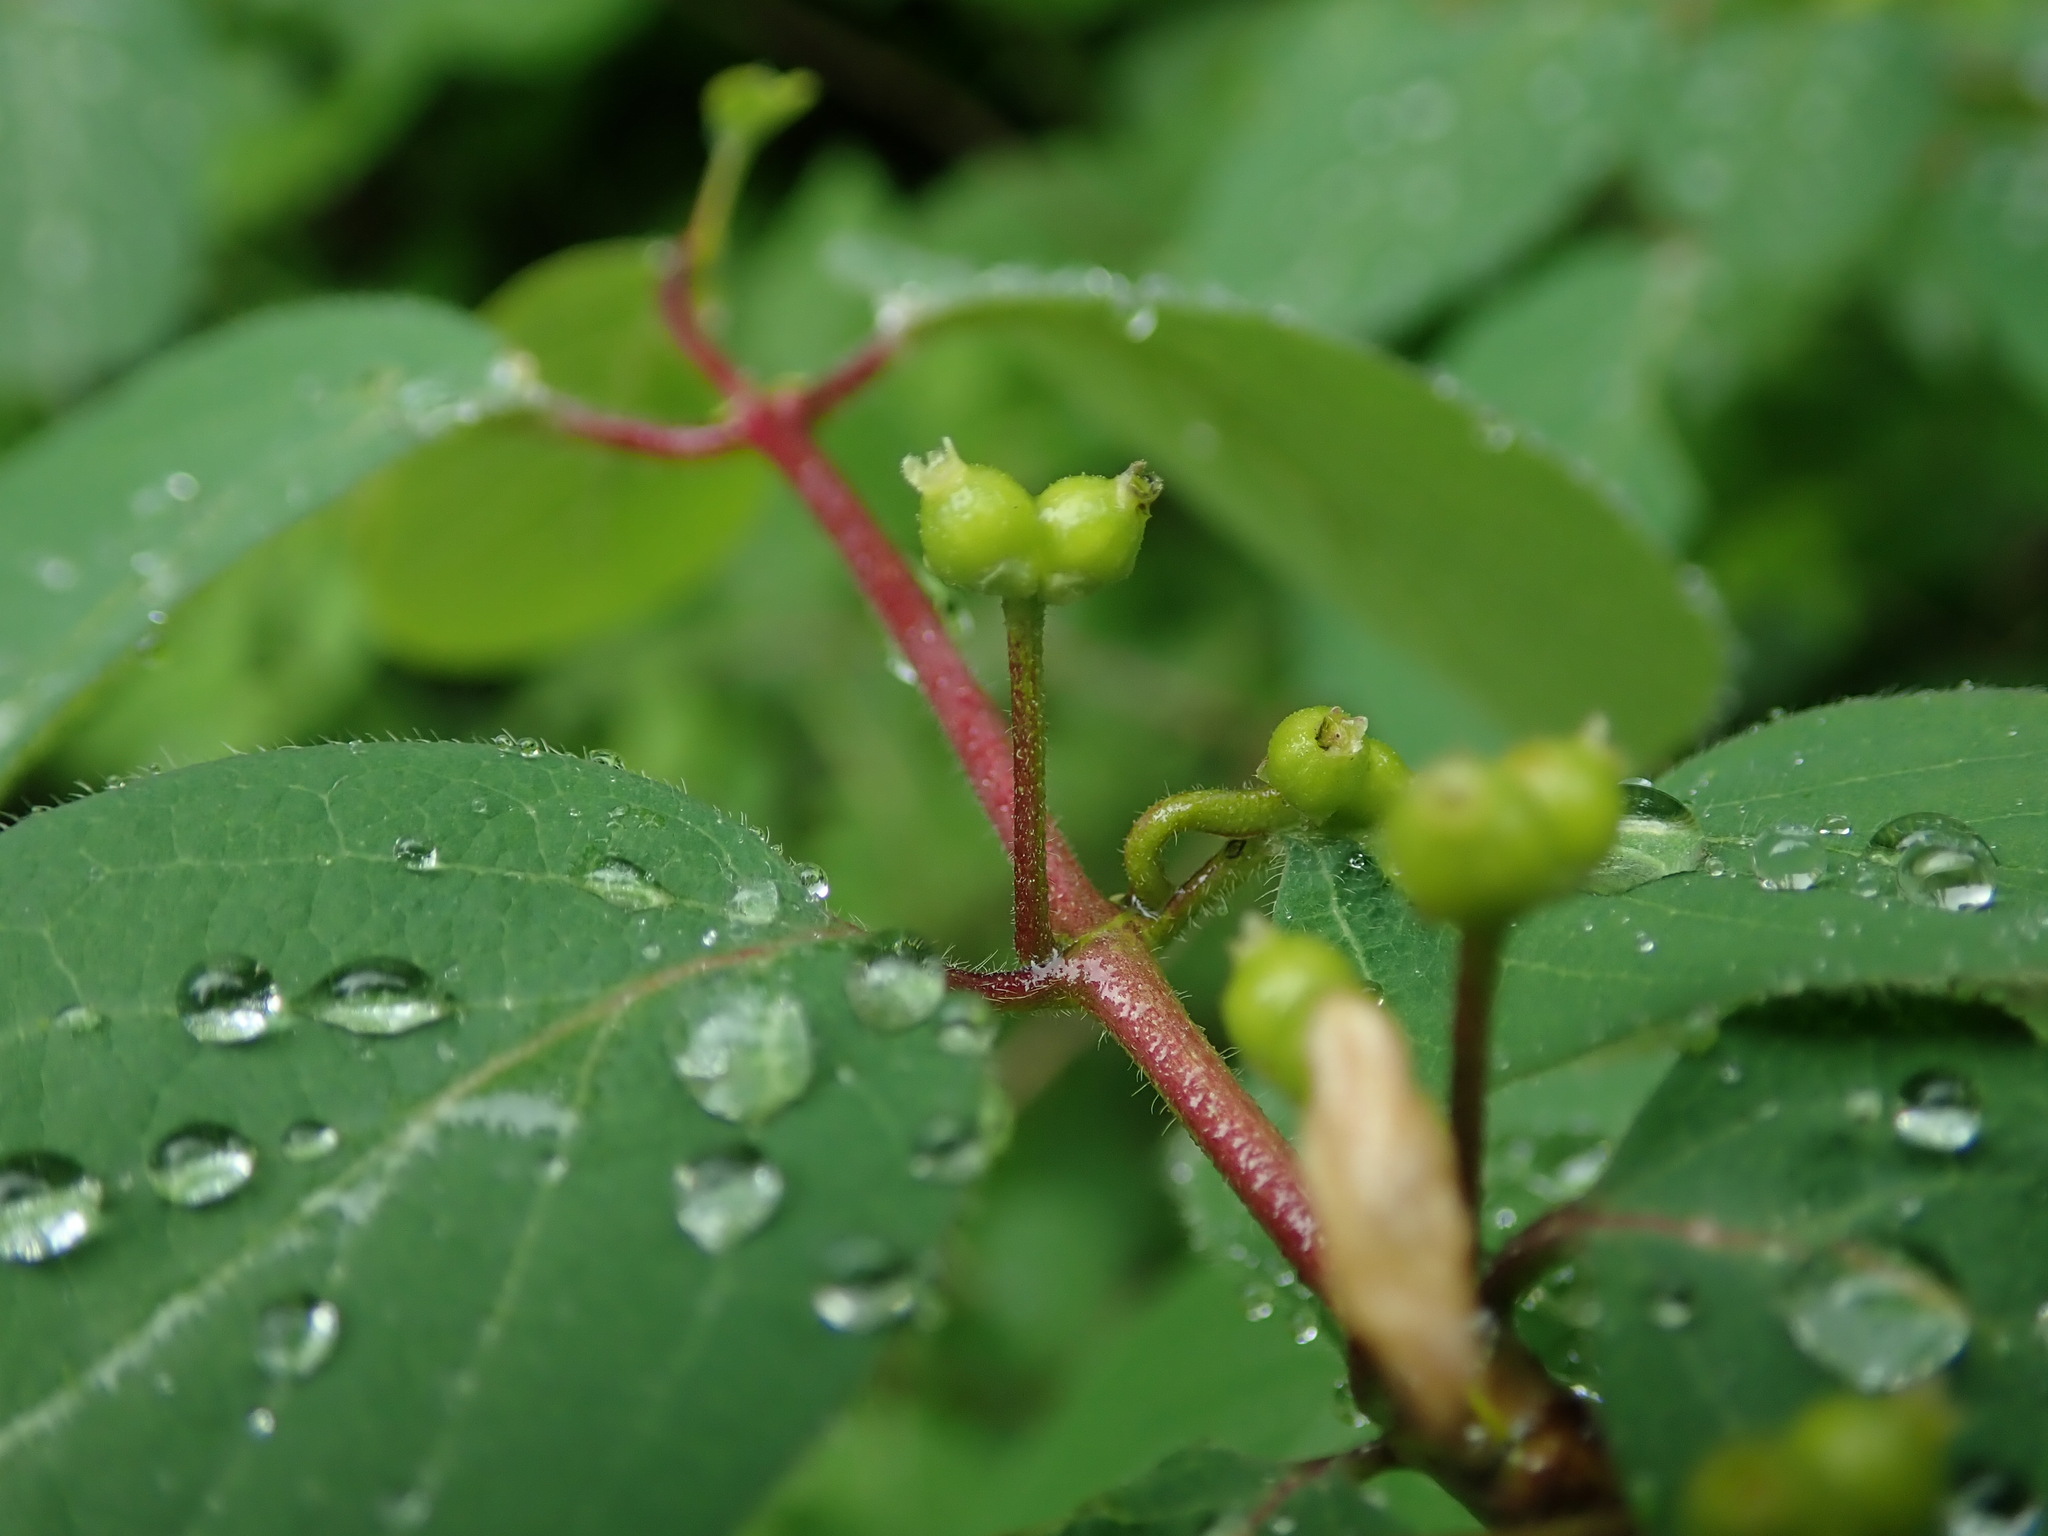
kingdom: Plantae
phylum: Tracheophyta
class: Magnoliopsida
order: Dipsacales
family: Caprifoliaceae
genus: Lonicera
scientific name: Lonicera xylosteum
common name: Fly honeysuckle
